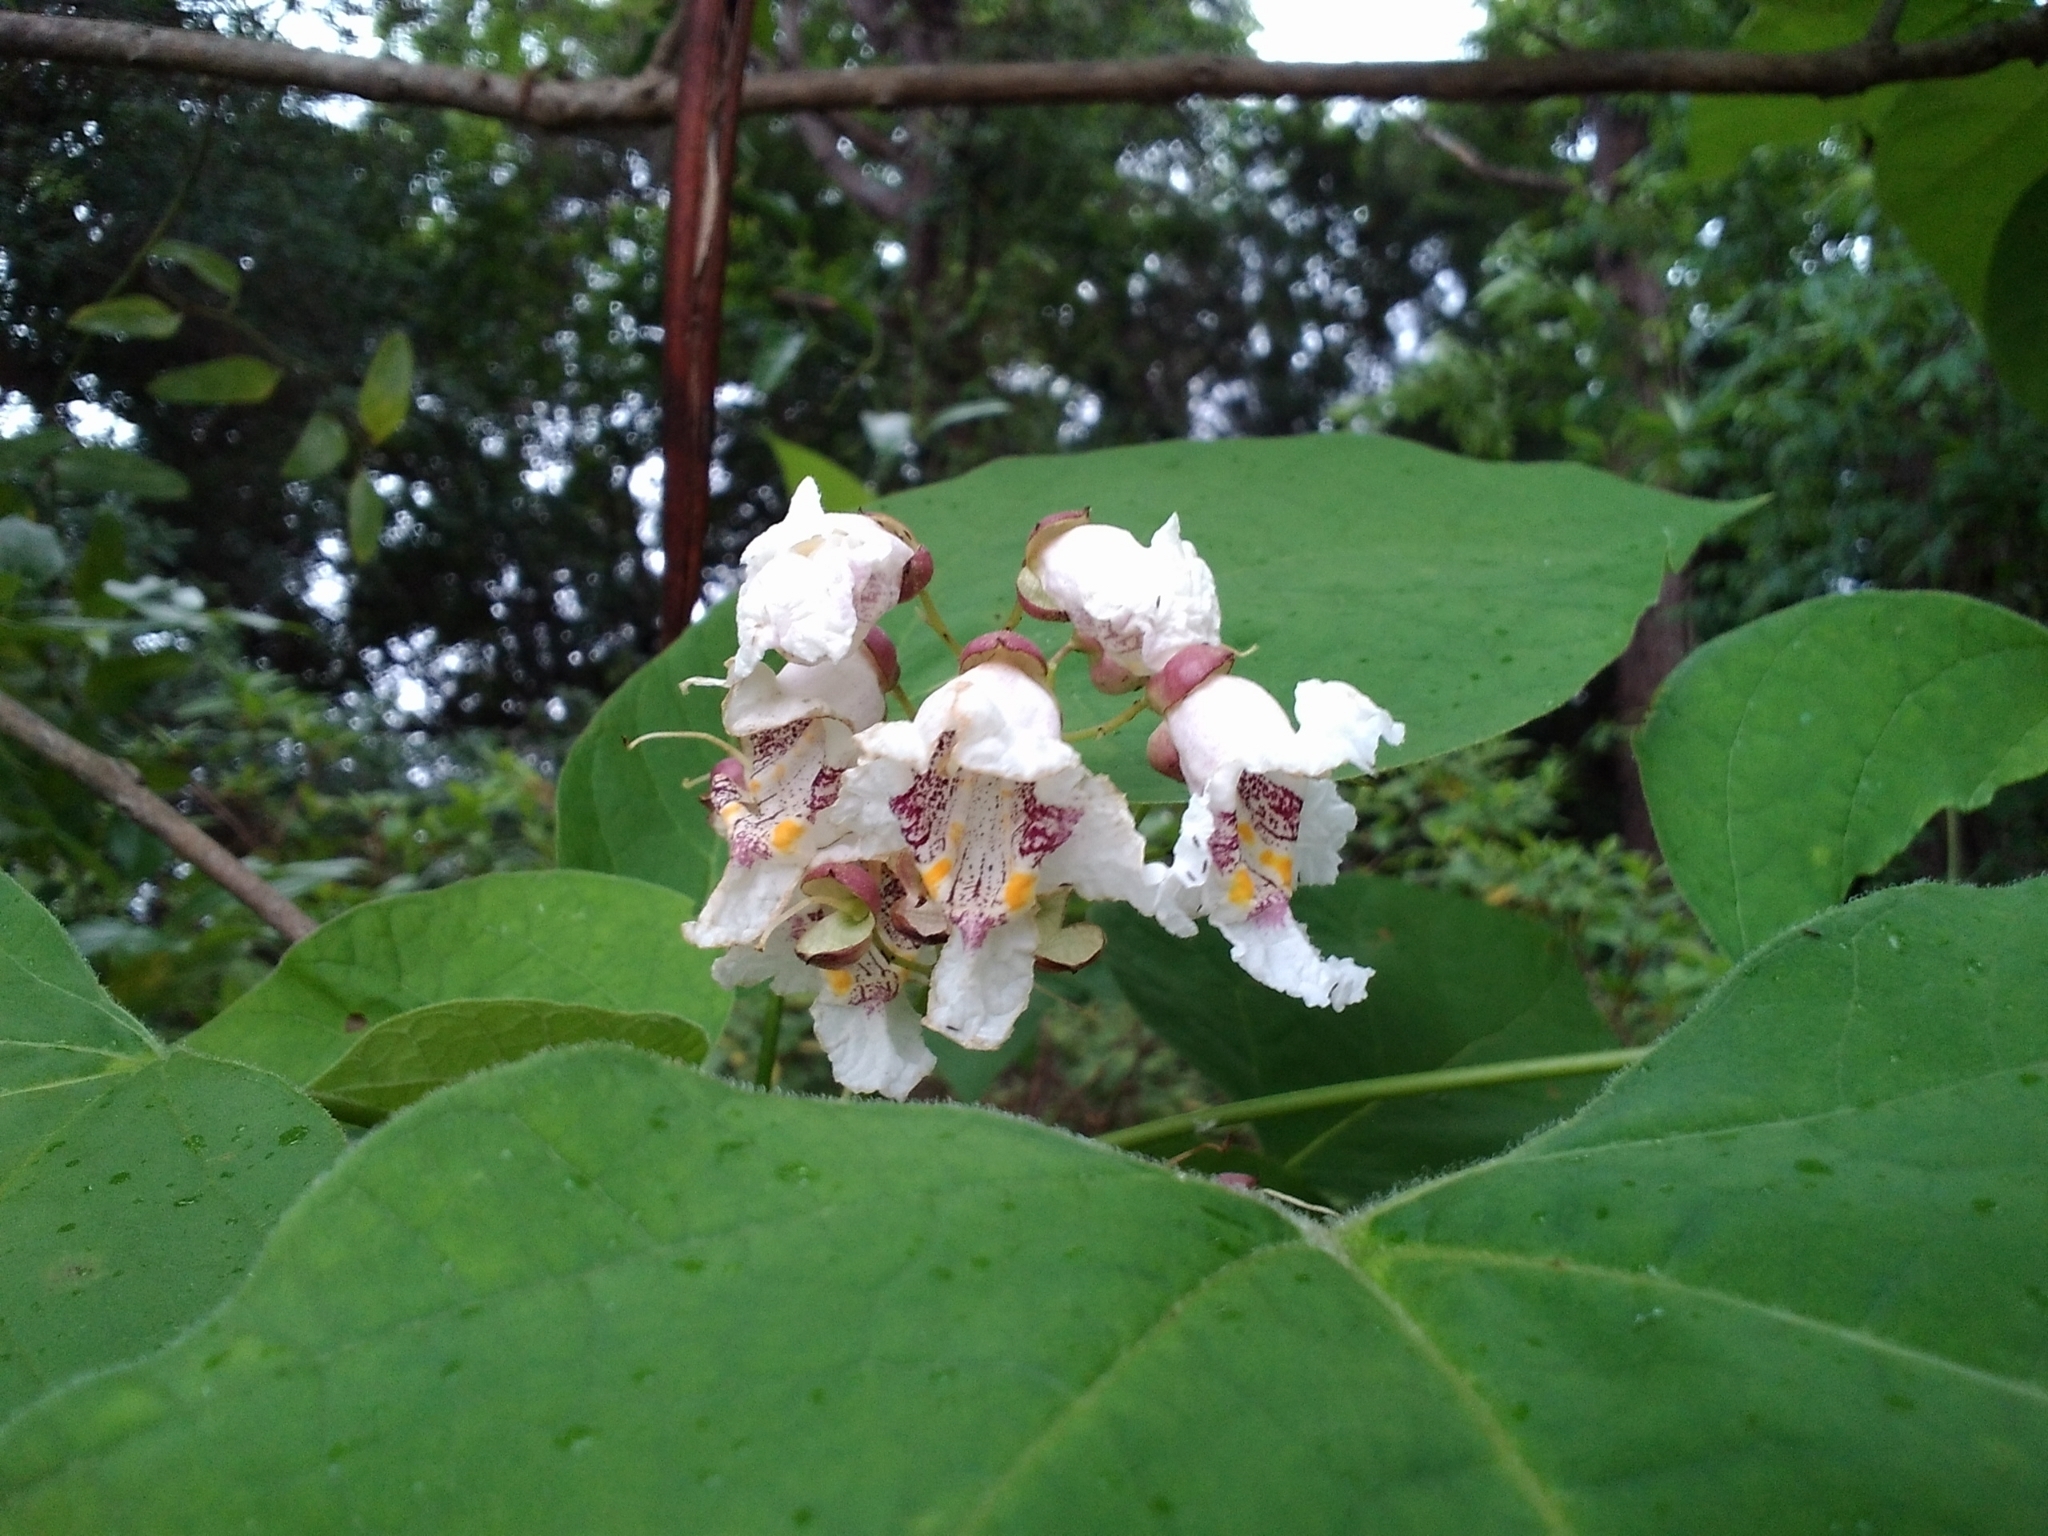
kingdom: Plantae
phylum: Tracheophyta
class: Magnoliopsida
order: Lamiales
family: Bignoniaceae
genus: Catalpa
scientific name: Catalpa bignonioides
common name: Southern catalpa
